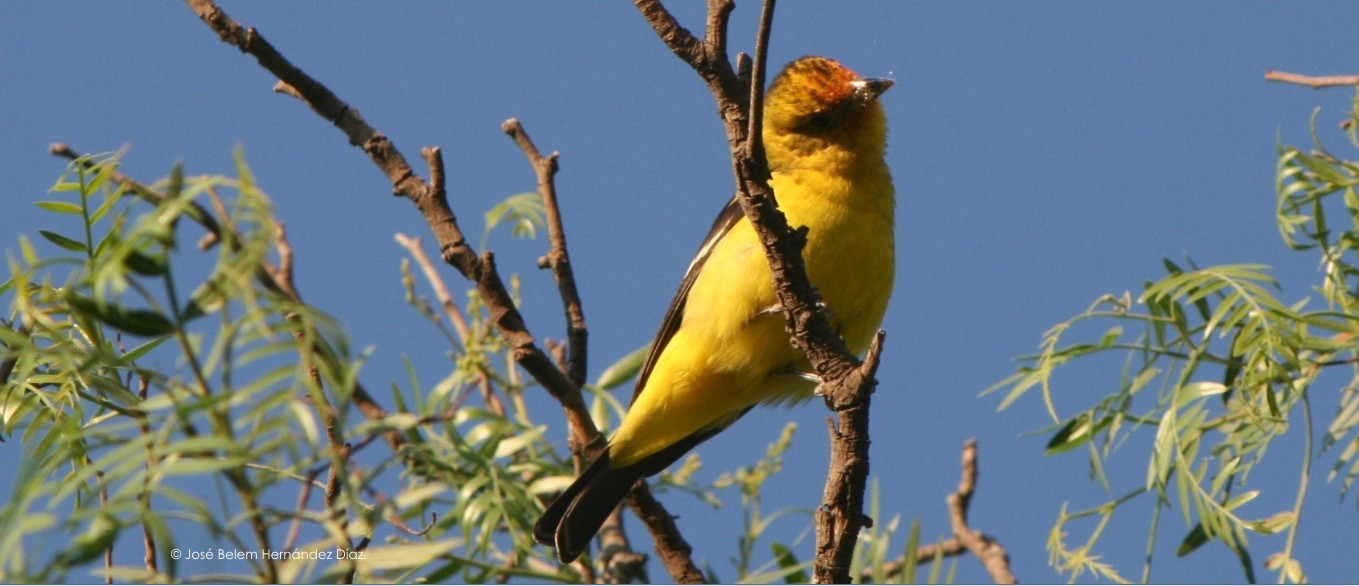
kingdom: Animalia
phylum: Chordata
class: Aves
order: Passeriformes
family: Cardinalidae
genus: Piranga
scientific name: Piranga ludoviciana
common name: Western tanager
